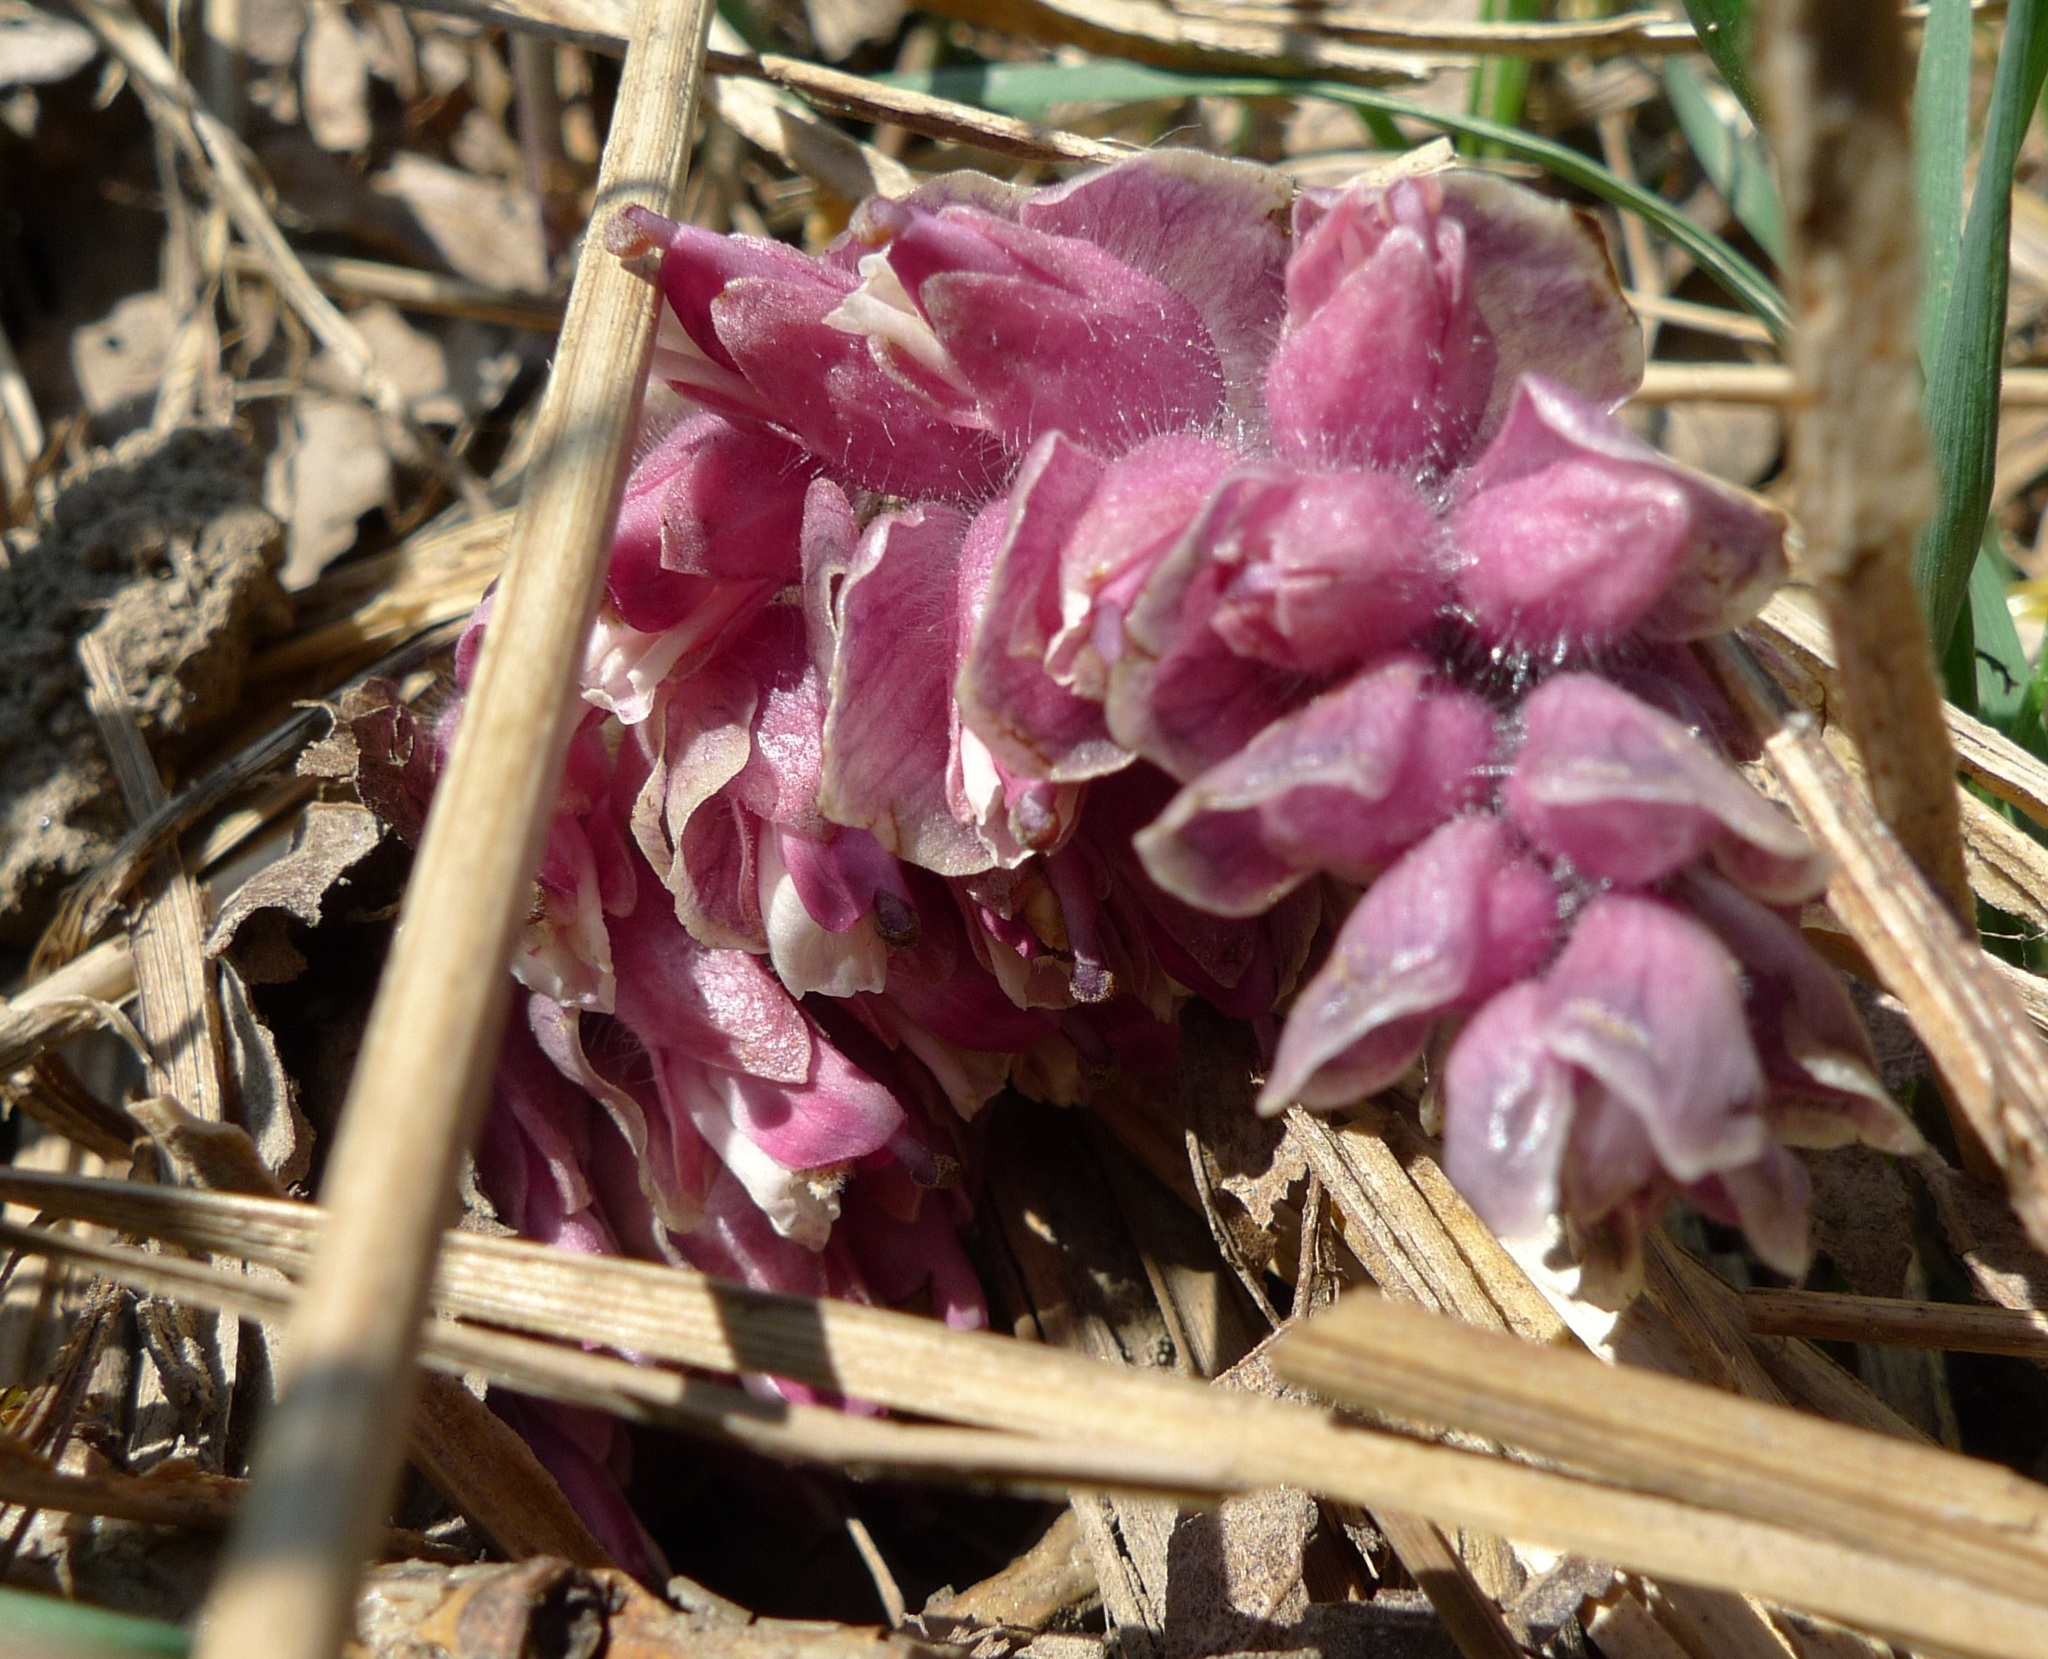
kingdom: Plantae
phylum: Tracheophyta
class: Magnoliopsida
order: Lamiales
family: Orobanchaceae
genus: Lathraea
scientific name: Lathraea squamaria
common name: Toothwort
